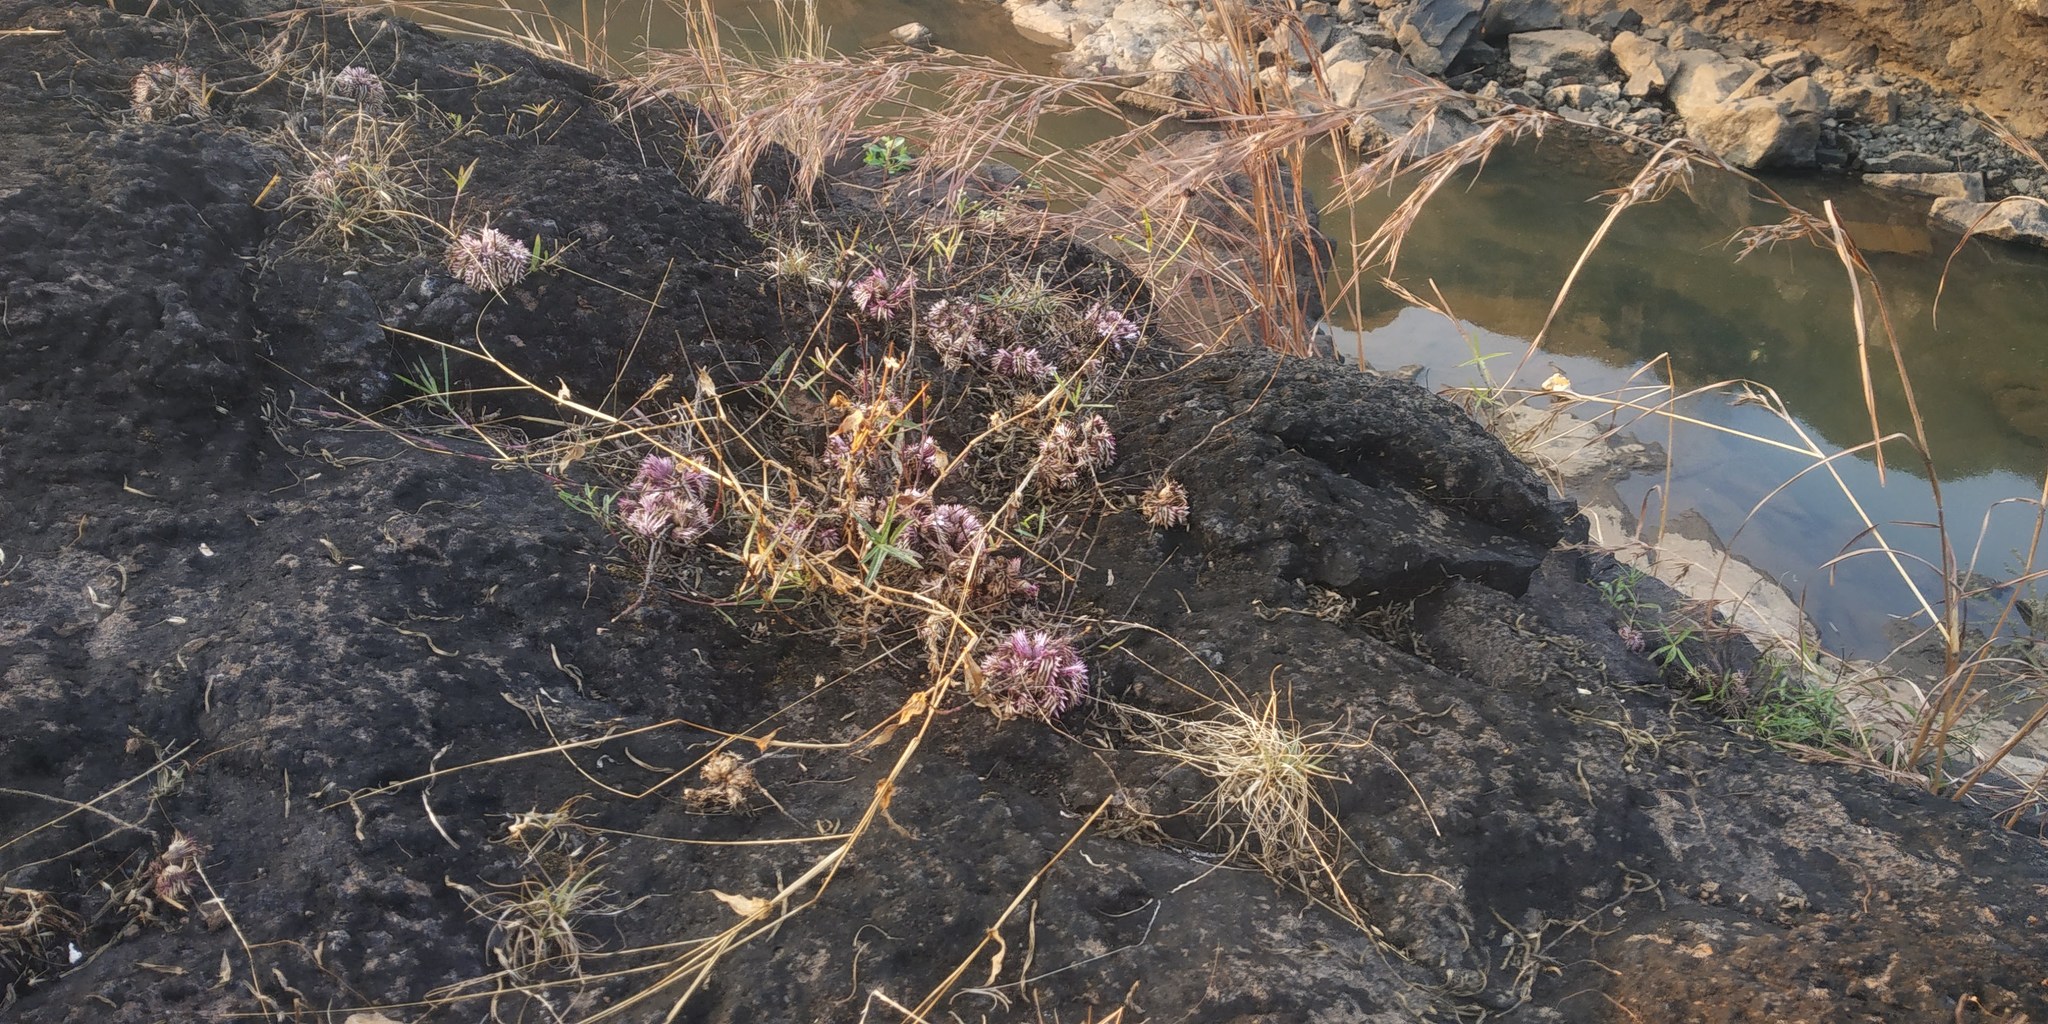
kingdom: Plantae
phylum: Tracheophyta
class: Magnoliopsida
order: Lamiales
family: Acanthaceae
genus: Lepidagathis
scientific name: Lepidagathis trinervis
